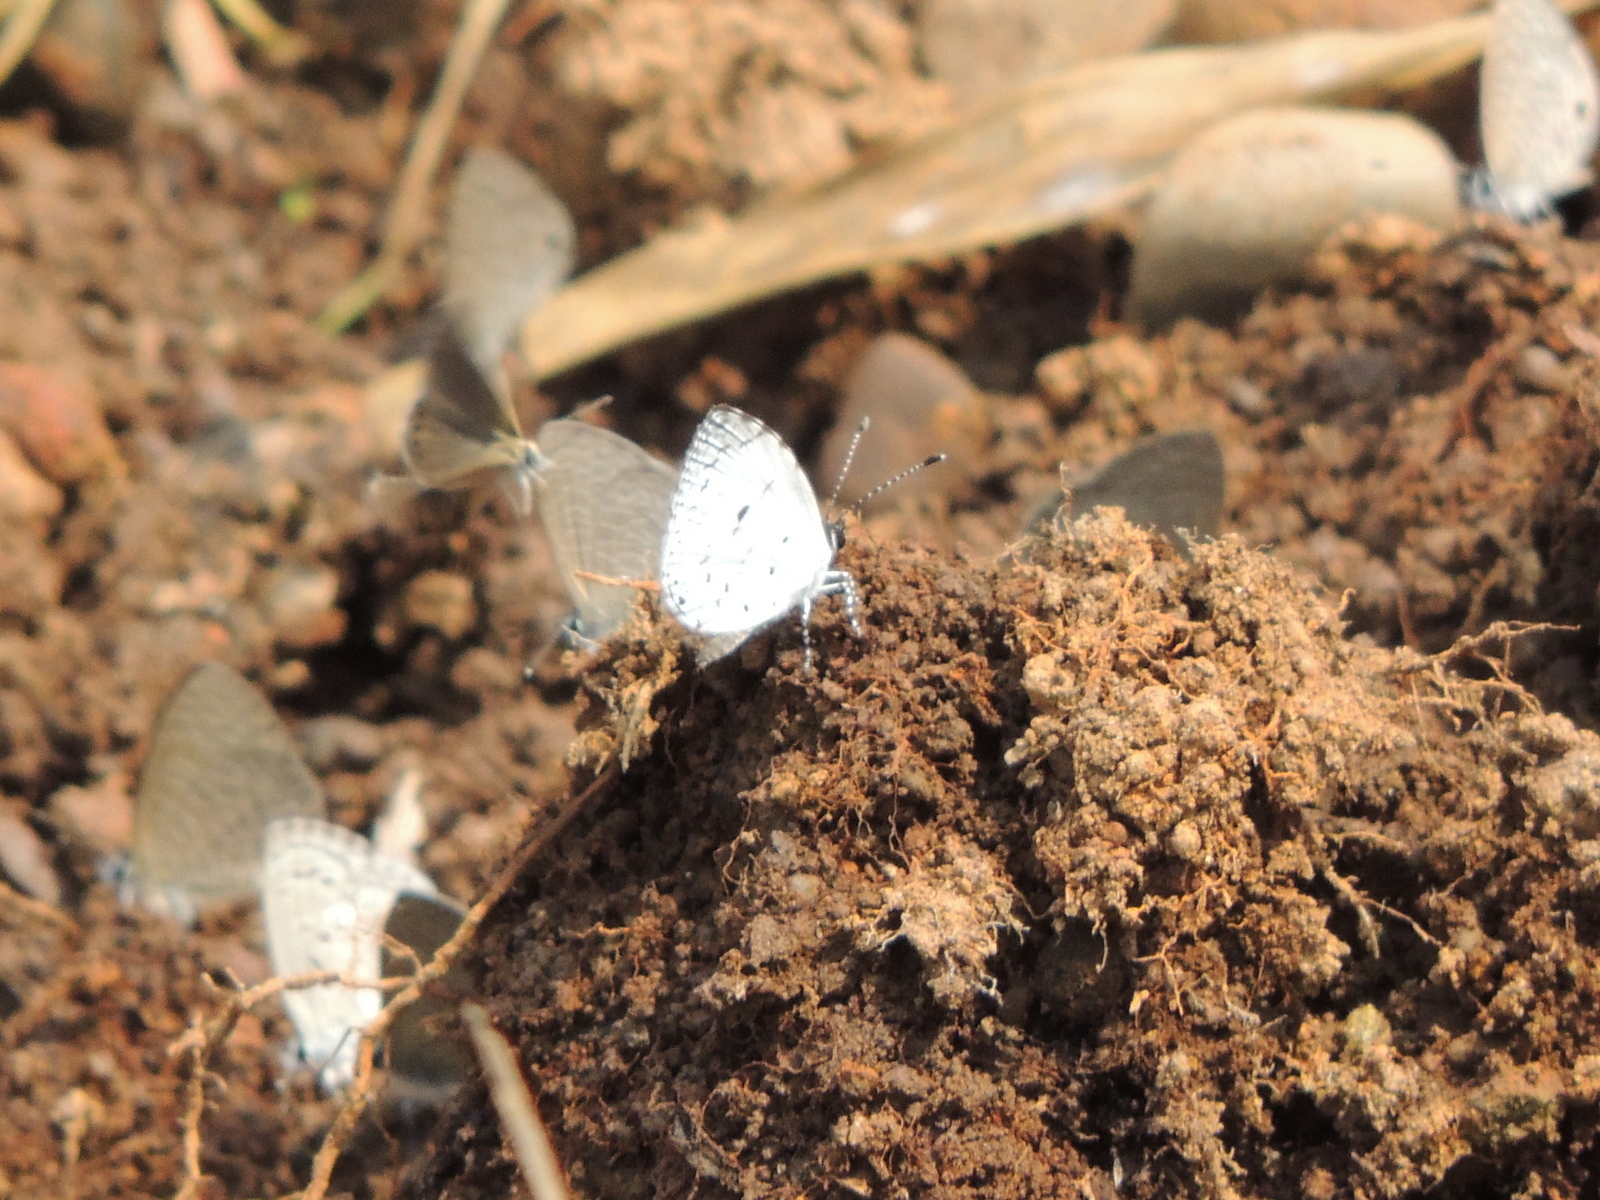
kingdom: Animalia
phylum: Arthropoda
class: Insecta
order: Lepidoptera
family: Lycaenidae
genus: Neopithecops
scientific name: Neopithecops zalmora
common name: Quaker
